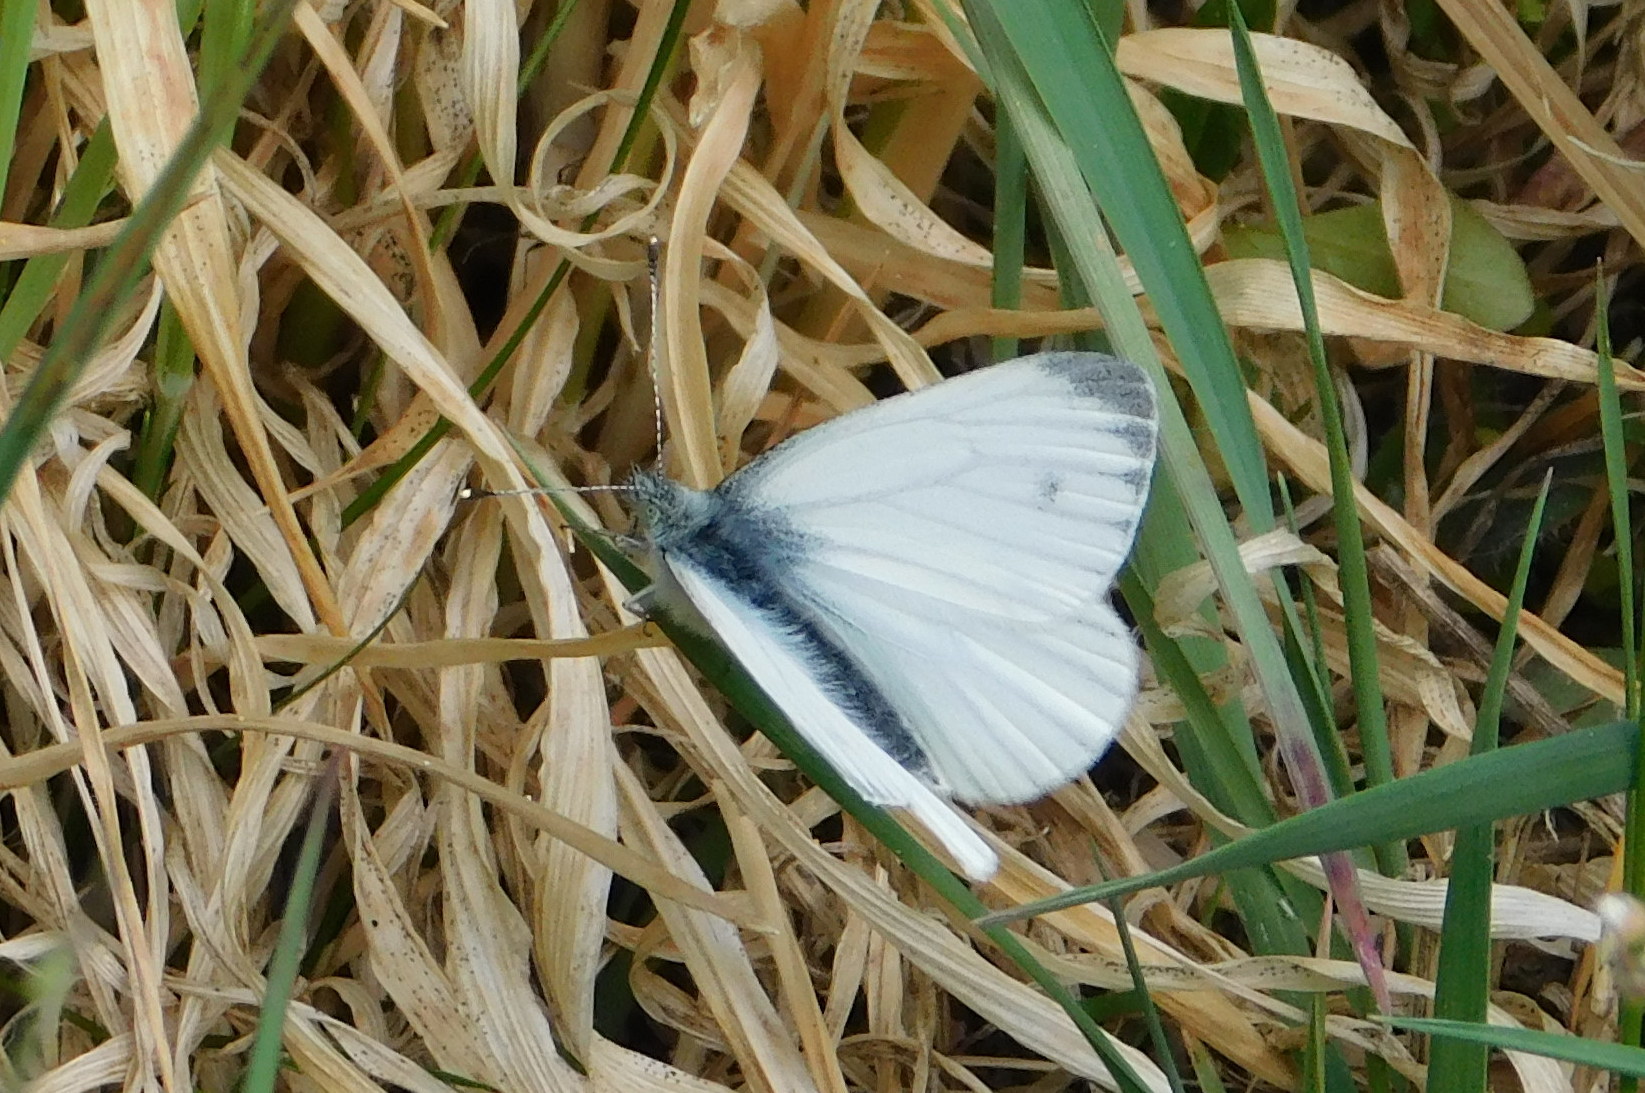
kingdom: Animalia
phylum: Arthropoda
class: Insecta
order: Lepidoptera
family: Pieridae
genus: Pieris
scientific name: Pieris napi
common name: Green-veined white
